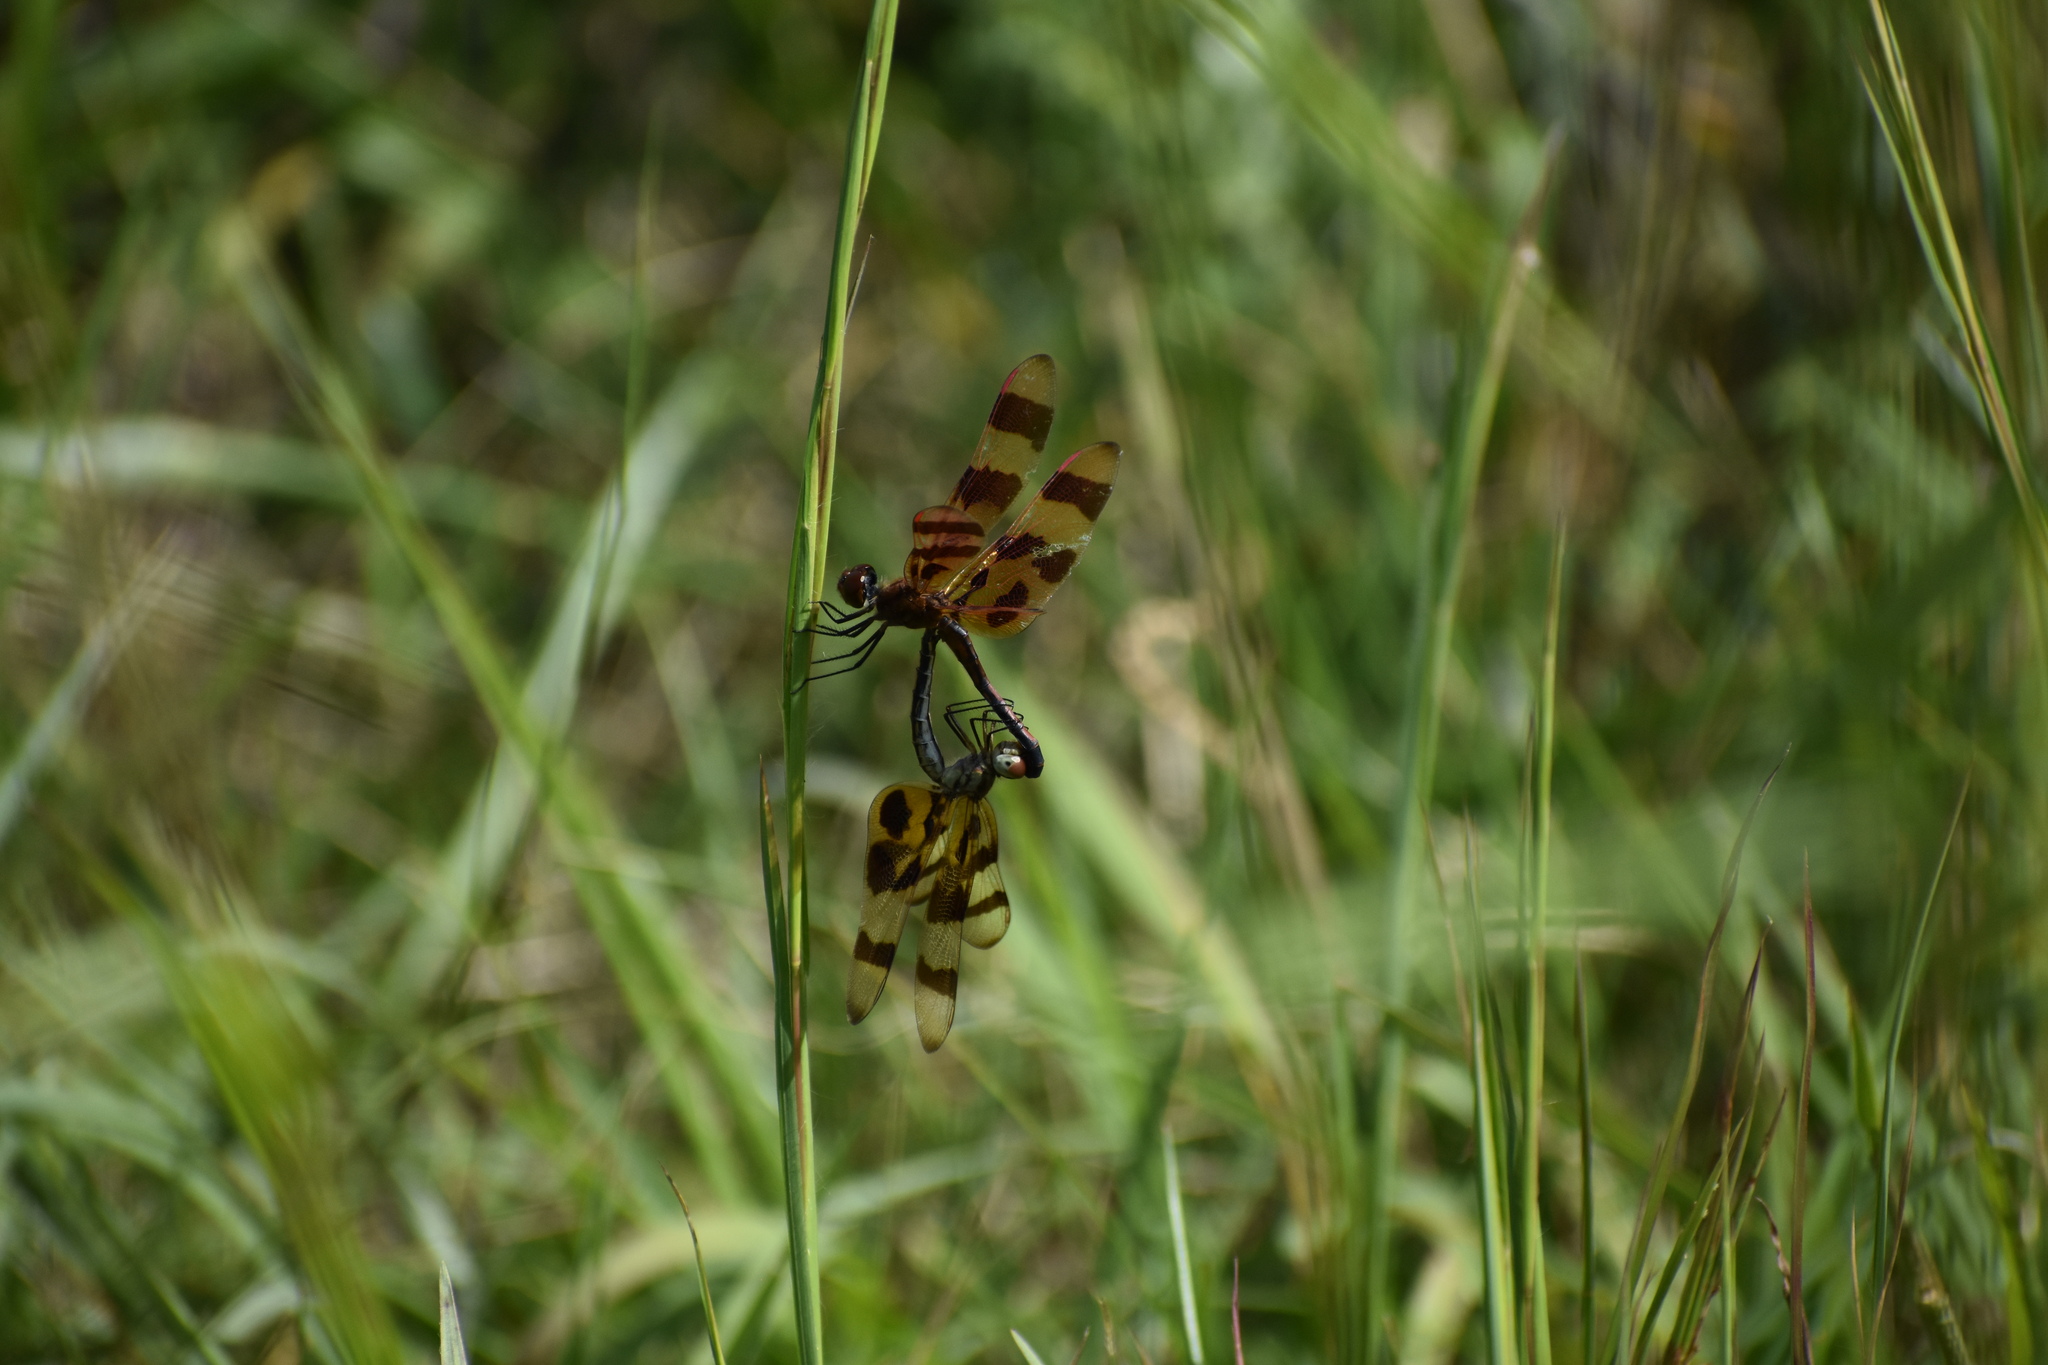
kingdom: Animalia
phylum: Arthropoda
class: Insecta
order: Odonata
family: Libellulidae
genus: Celithemis
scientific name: Celithemis eponina
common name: Halloween pennant
